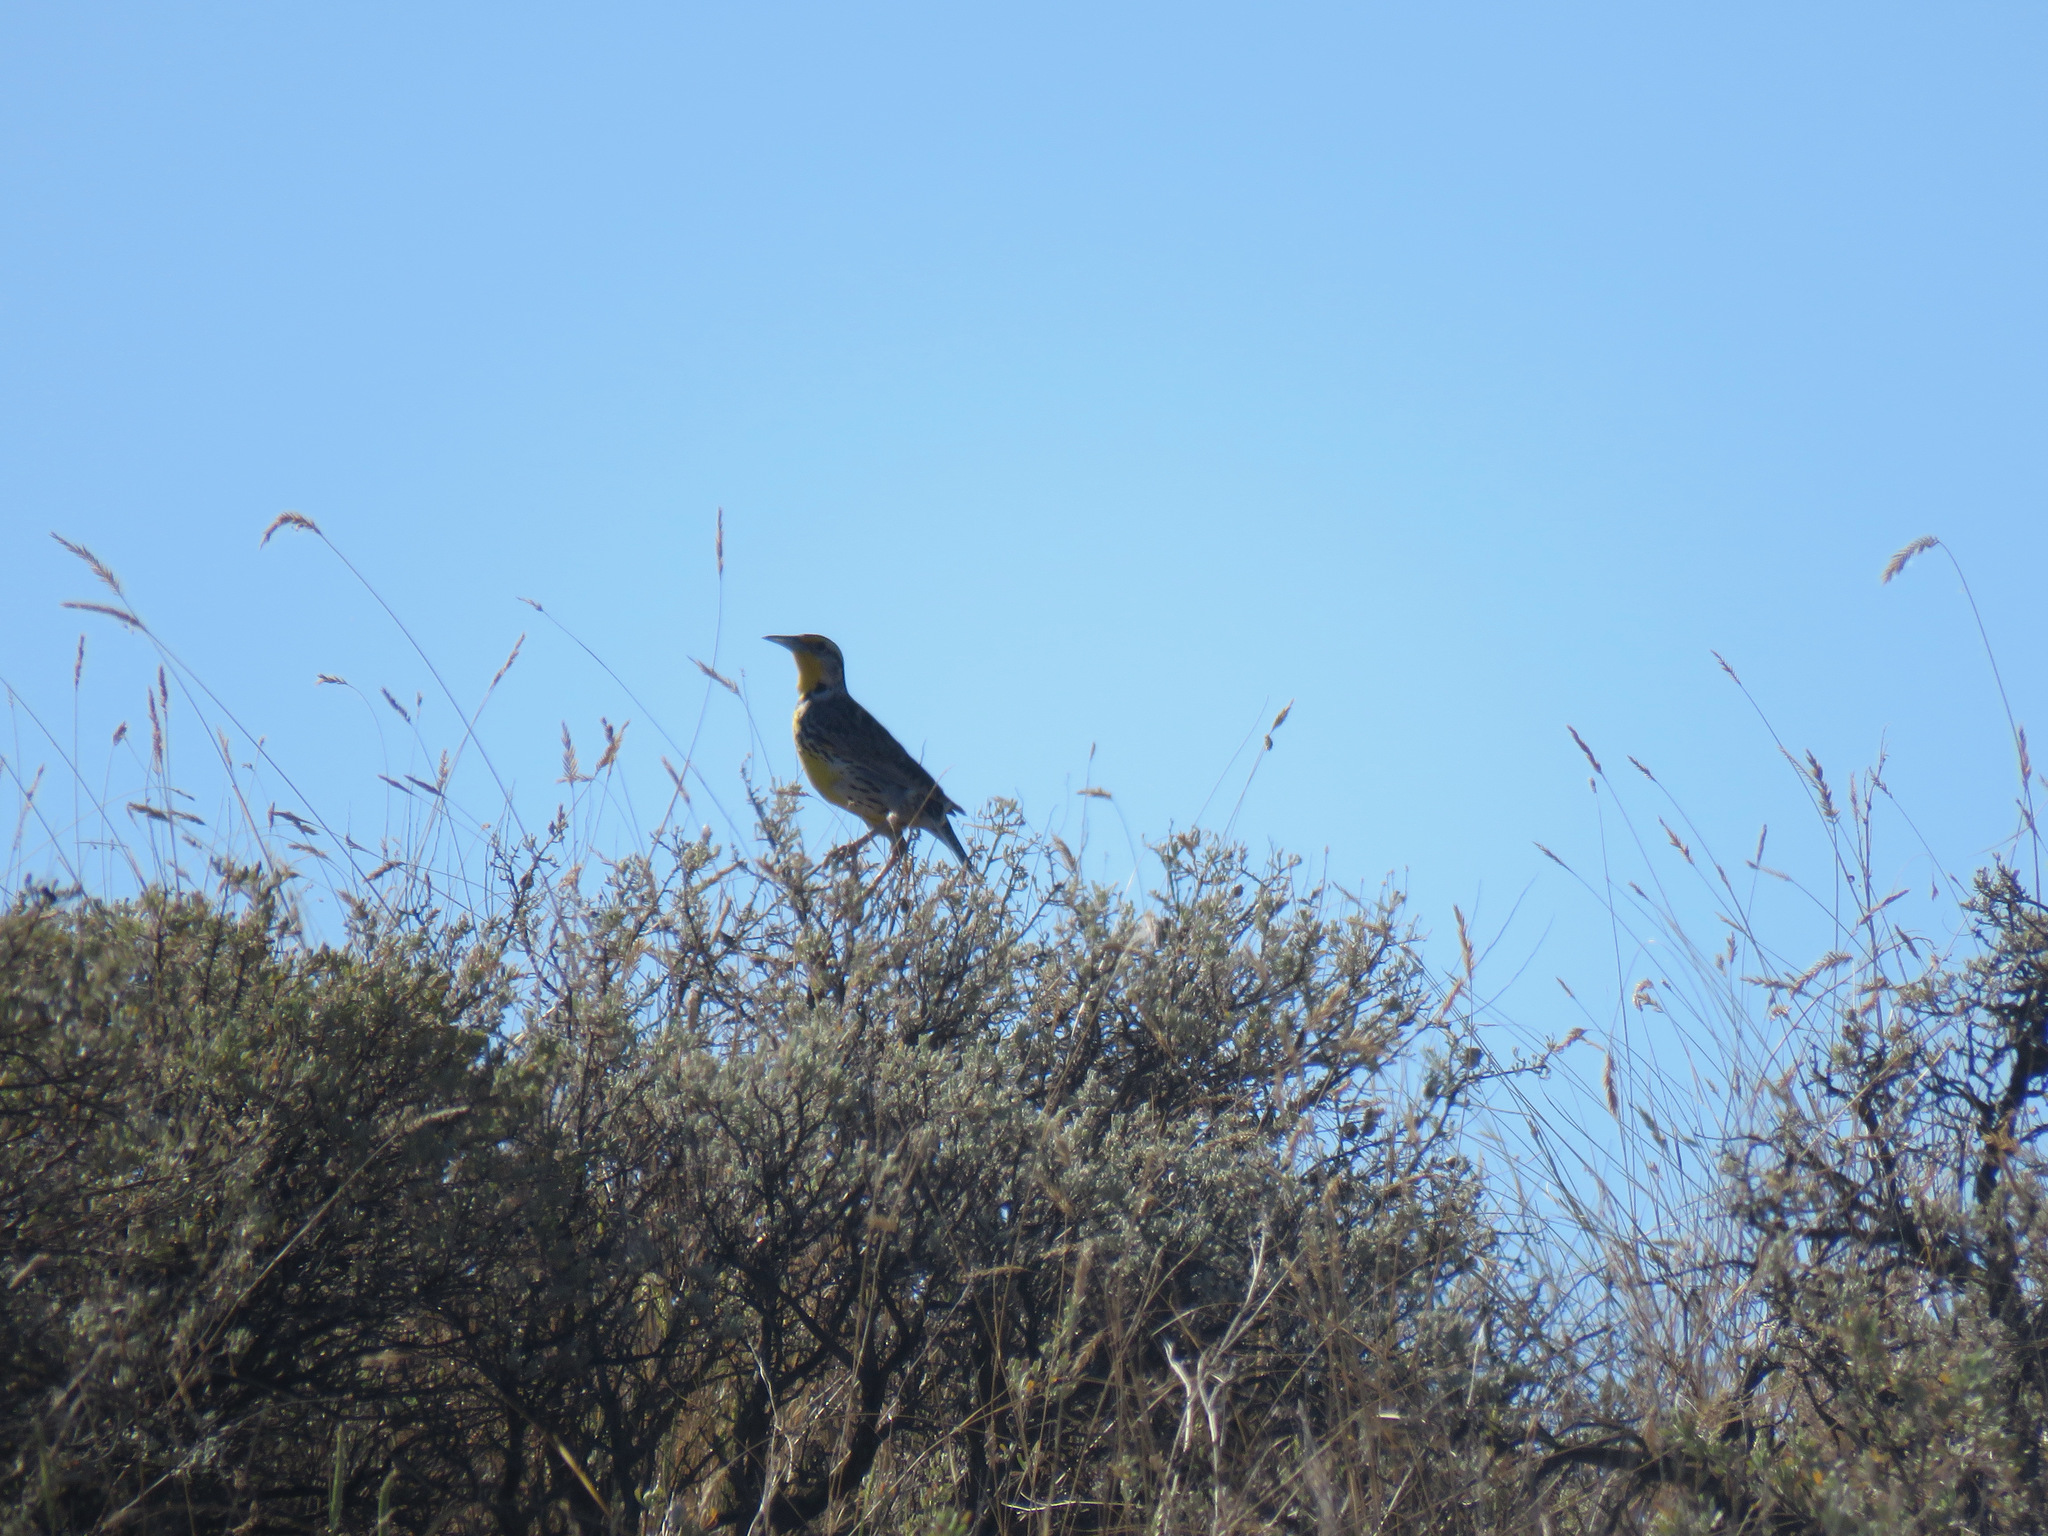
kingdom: Animalia
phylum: Chordata
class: Aves
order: Passeriformes
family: Icteridae
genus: Sturnella
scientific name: Sturnella neglecta
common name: Western meadowlark
